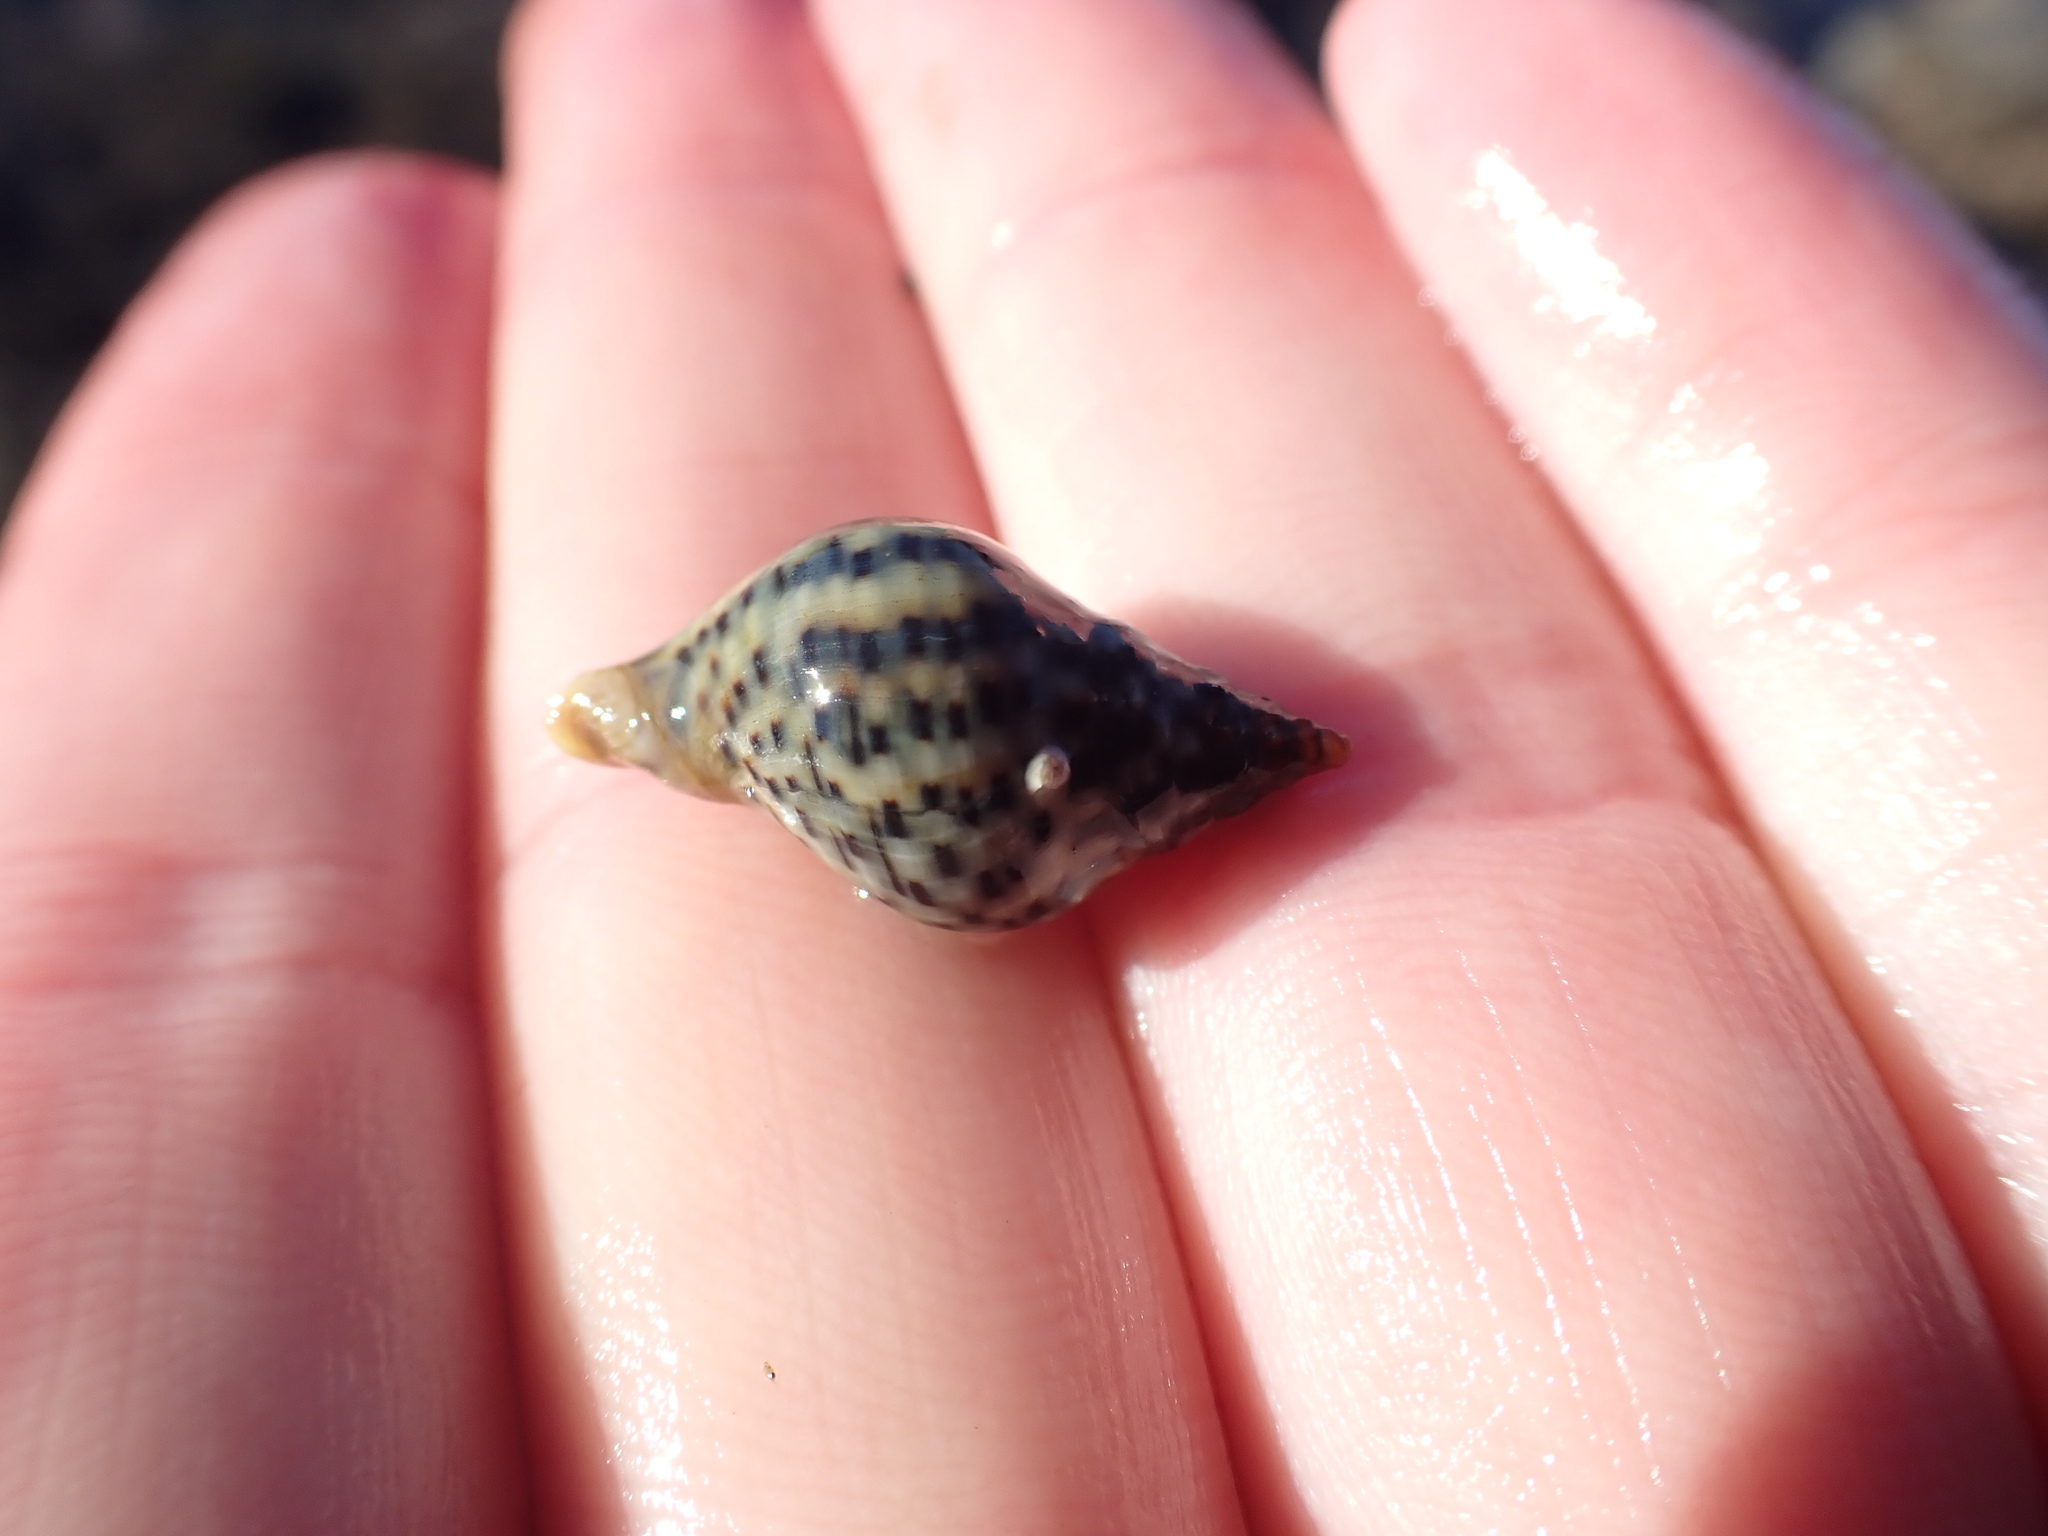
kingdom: Animalia
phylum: Mollusca
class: Gastropoda
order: Neogastropoda
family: Cominellidae
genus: Cominella
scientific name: Cominella maculosa
